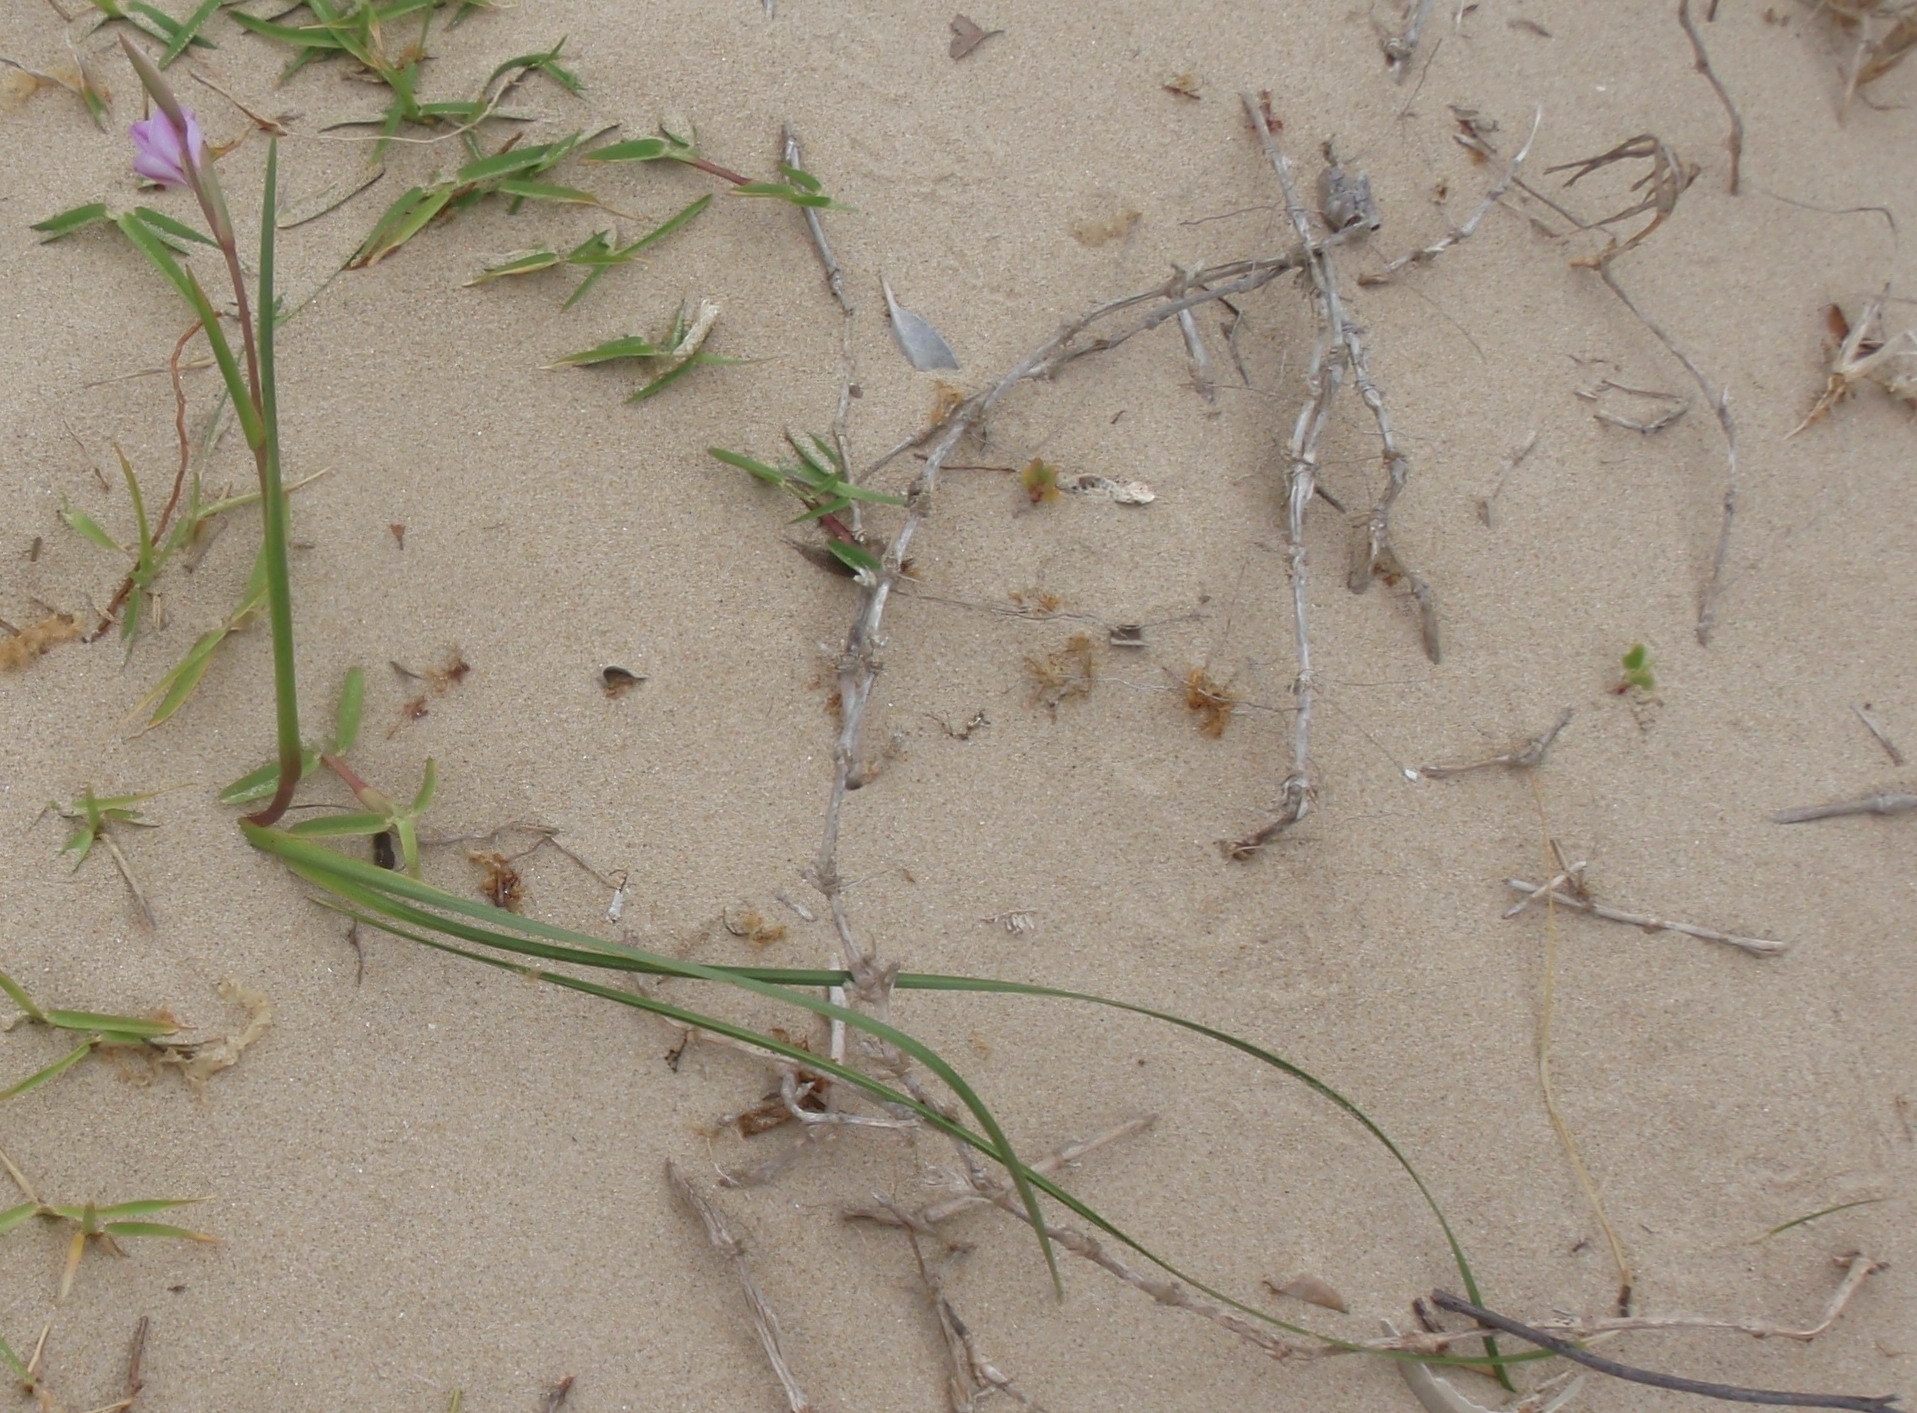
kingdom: Plantae
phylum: Tracheophyta
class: Liliopsida
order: Asparagales
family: Iridaceae
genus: Gladiolus
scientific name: Gladiolus gueinzii
